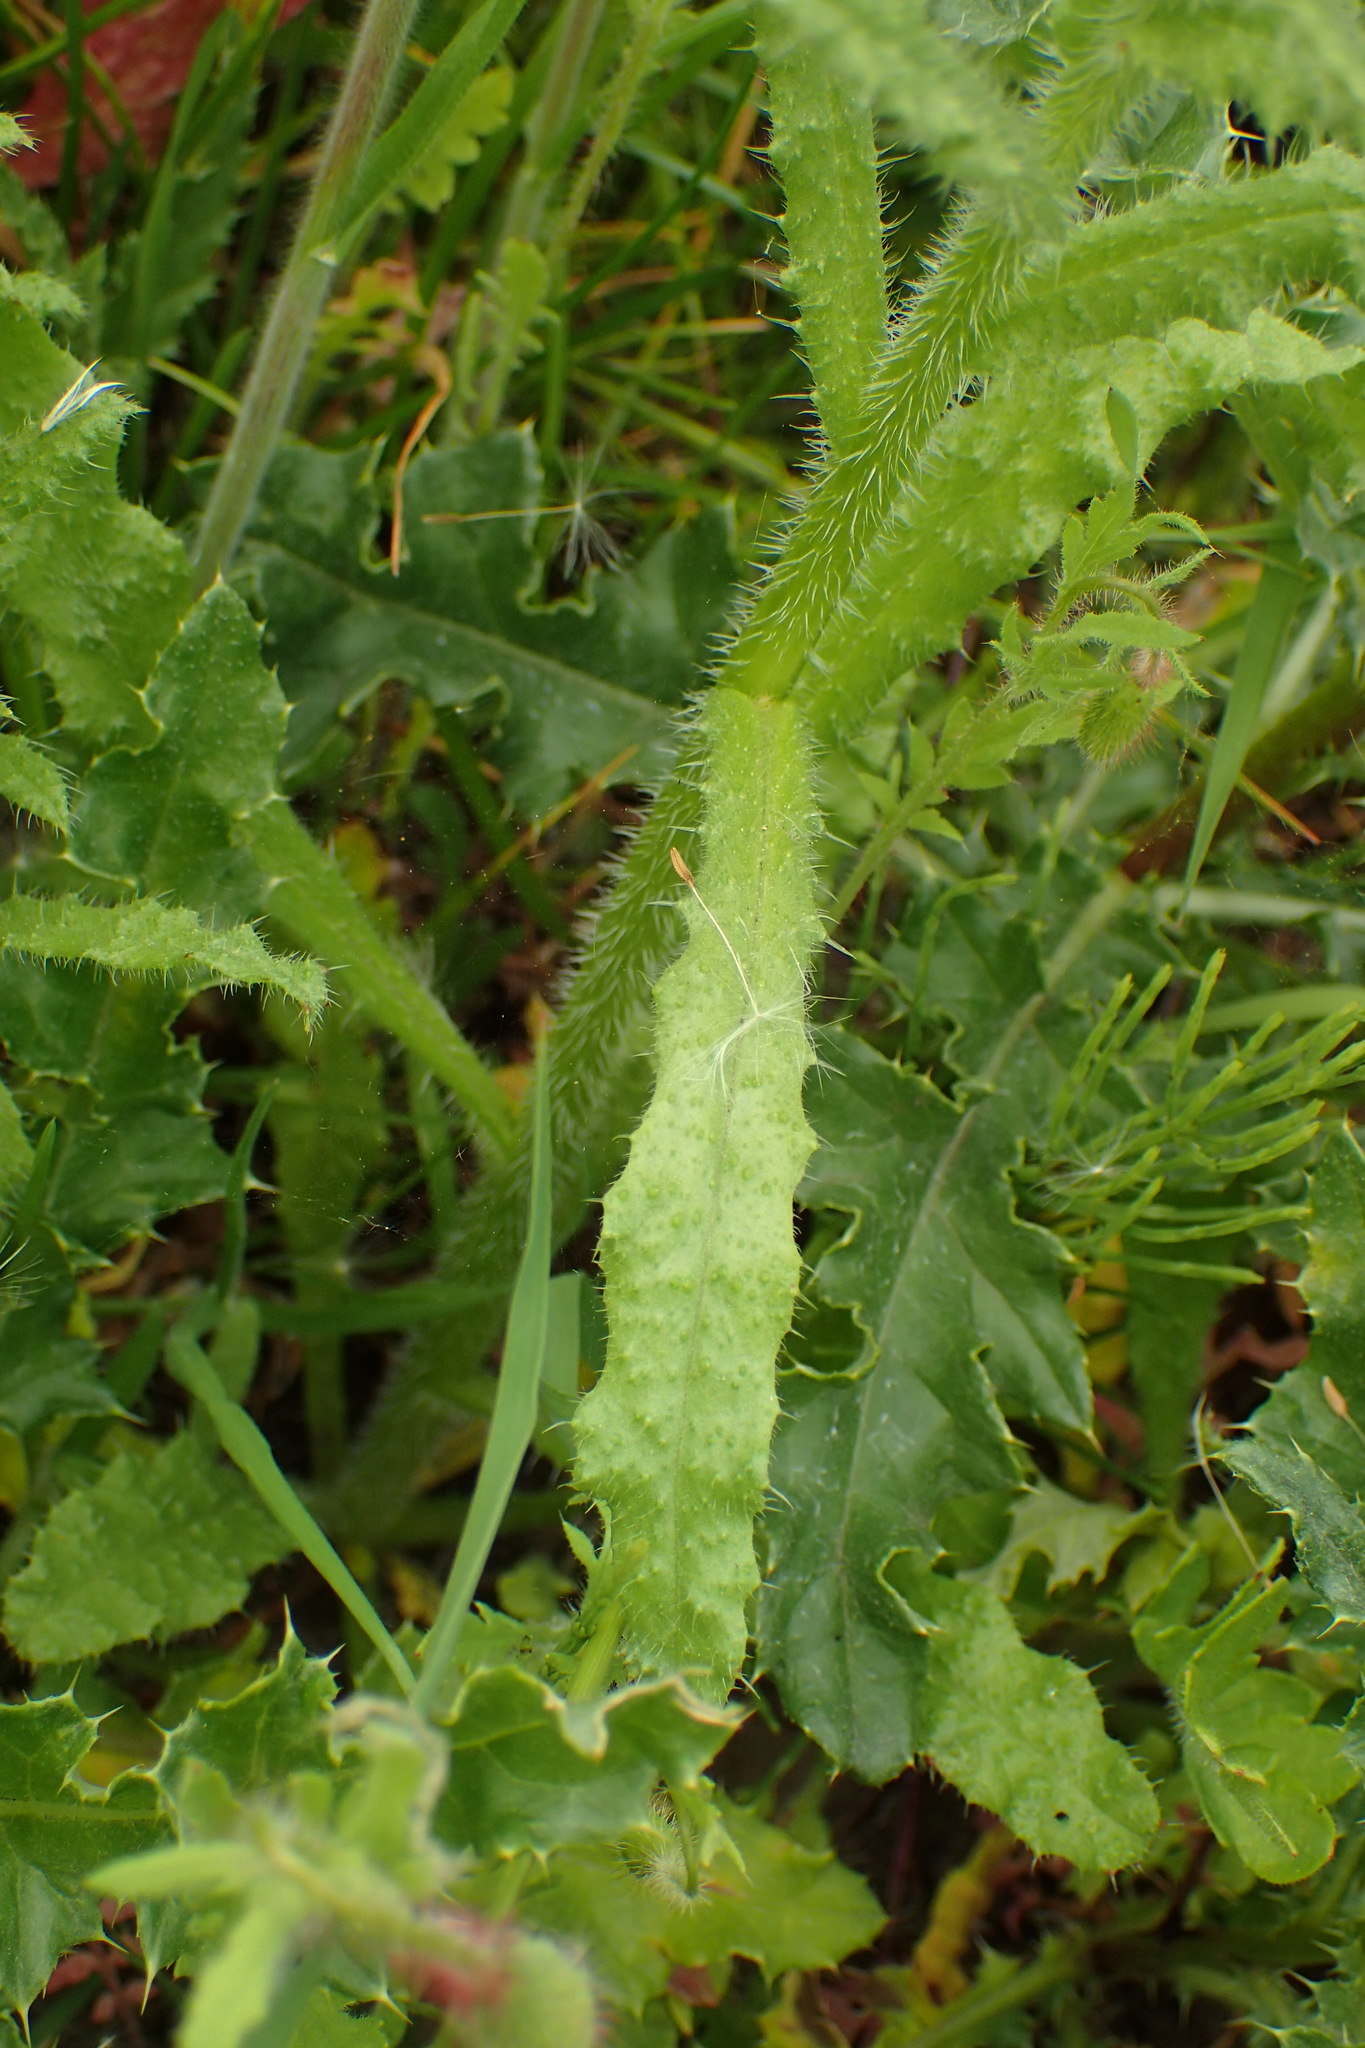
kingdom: Plantae
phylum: Tracheophyta
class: Magnoliopsida
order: Boraginales
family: Boraginaceae
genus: Lycopsis
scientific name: Lycopsis arvensis
